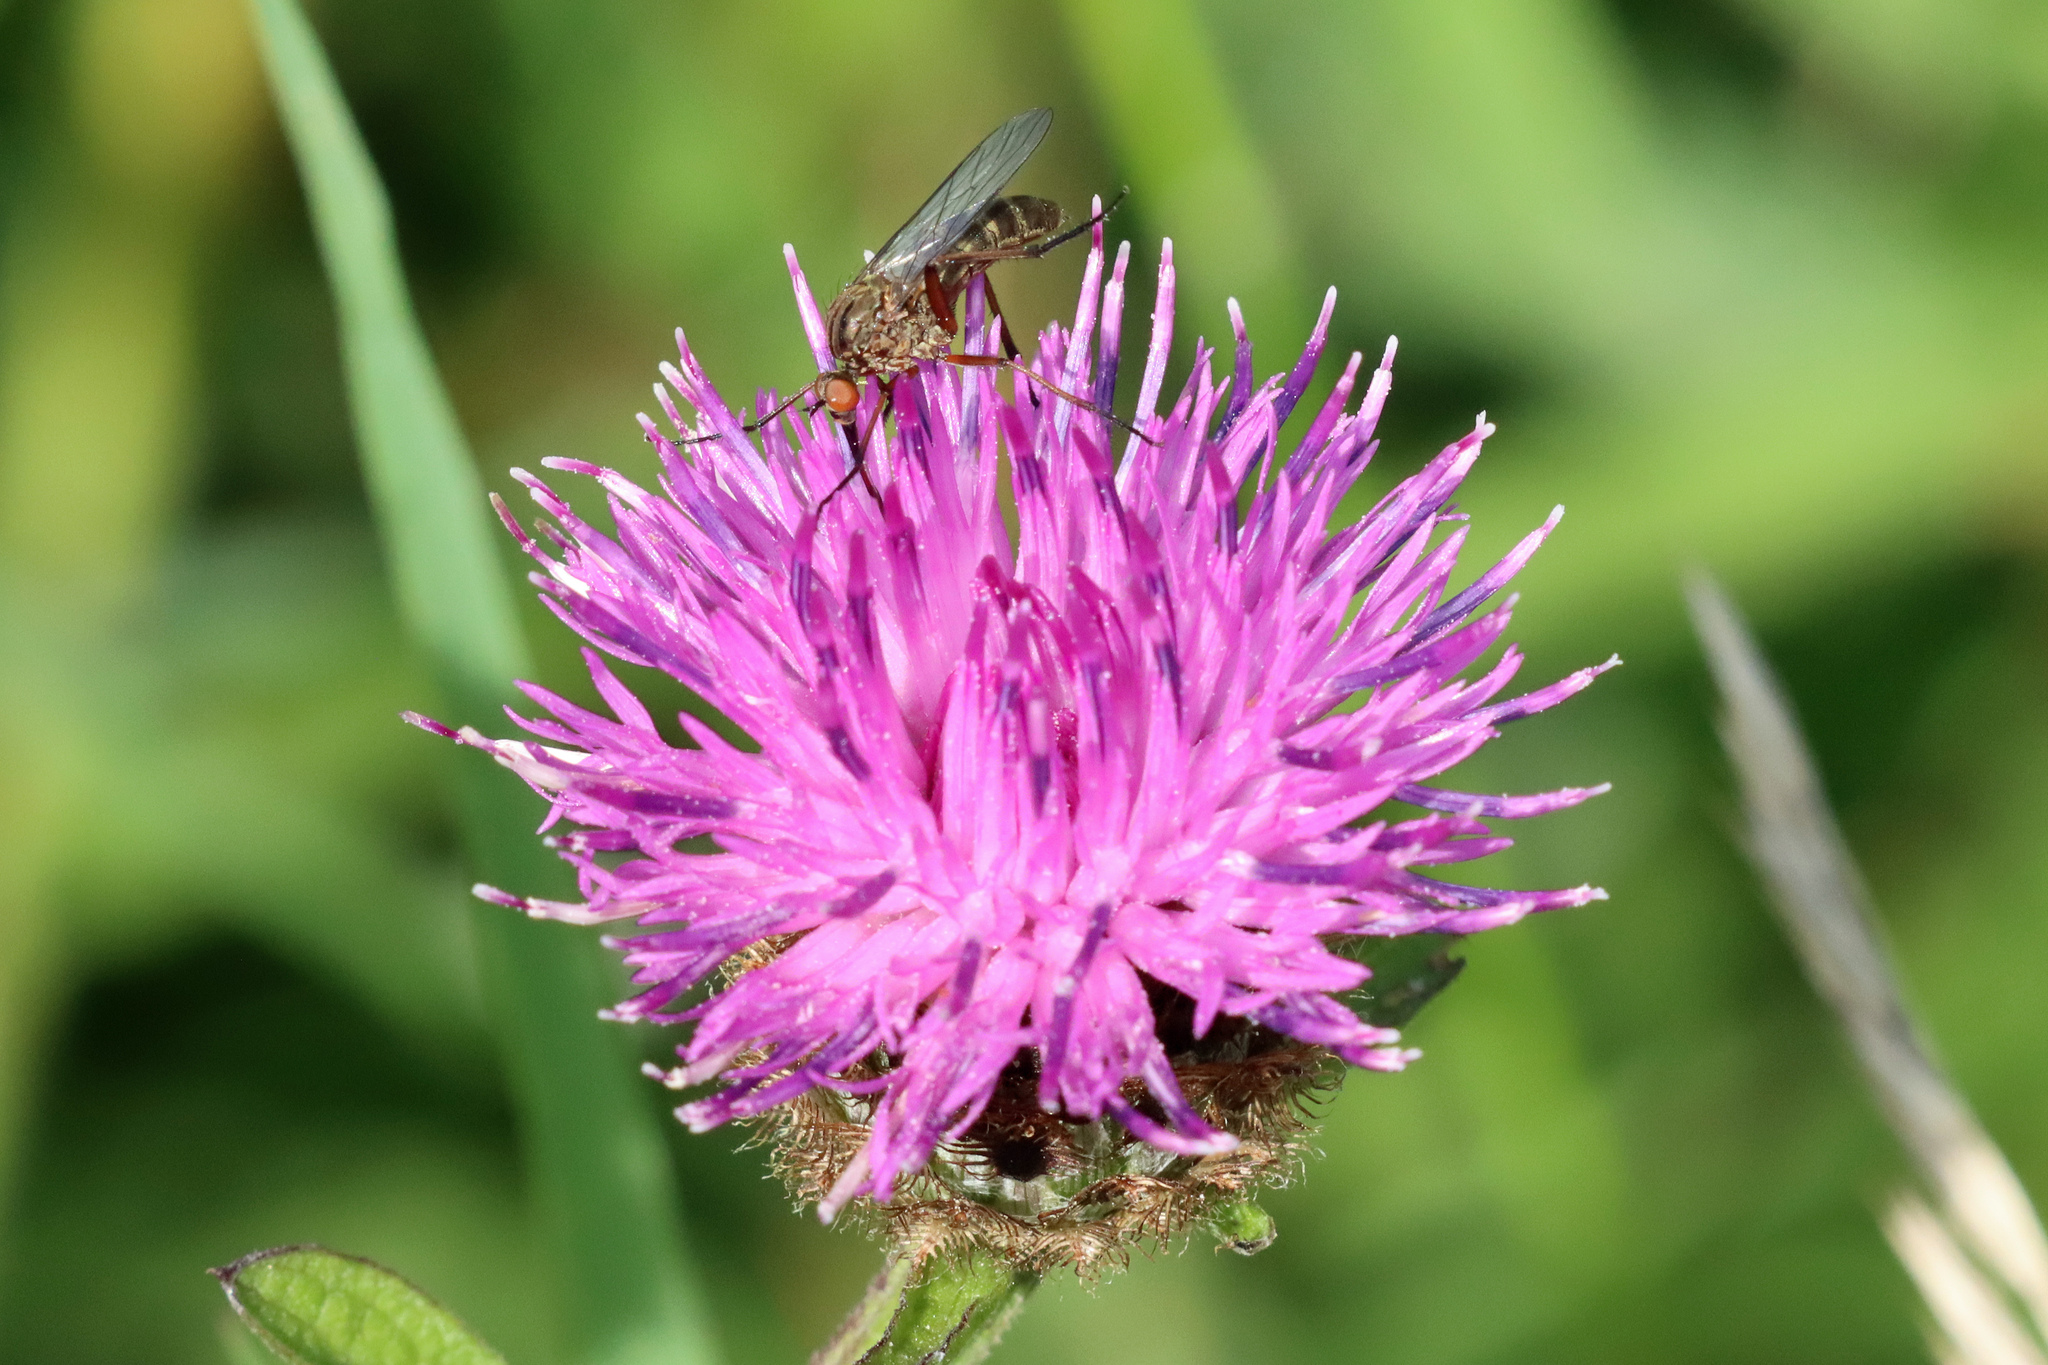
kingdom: Animalia
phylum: Arthropoda
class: Insecta
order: Diptera
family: Empididae
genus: Empis
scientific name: Empis livida
